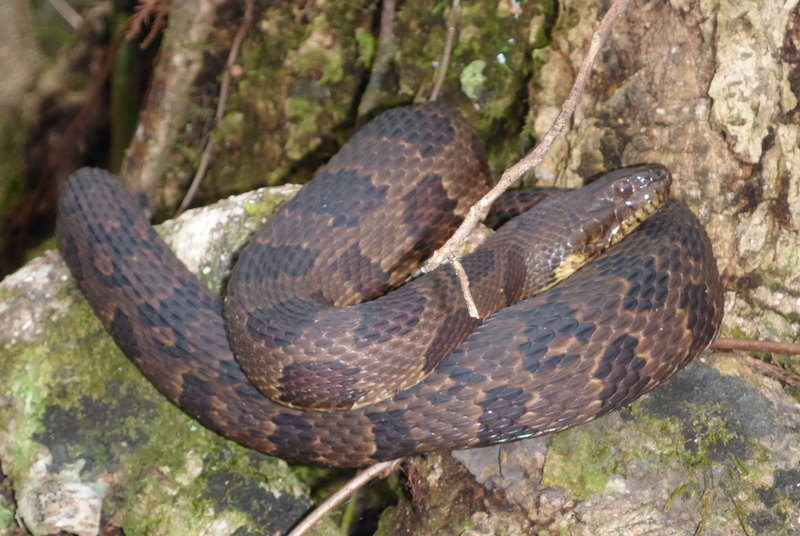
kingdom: Animalia
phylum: Chordata
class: Squamata
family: Colubridae
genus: Nerodia
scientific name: Nerodia taxispilota
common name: Brown water snake
